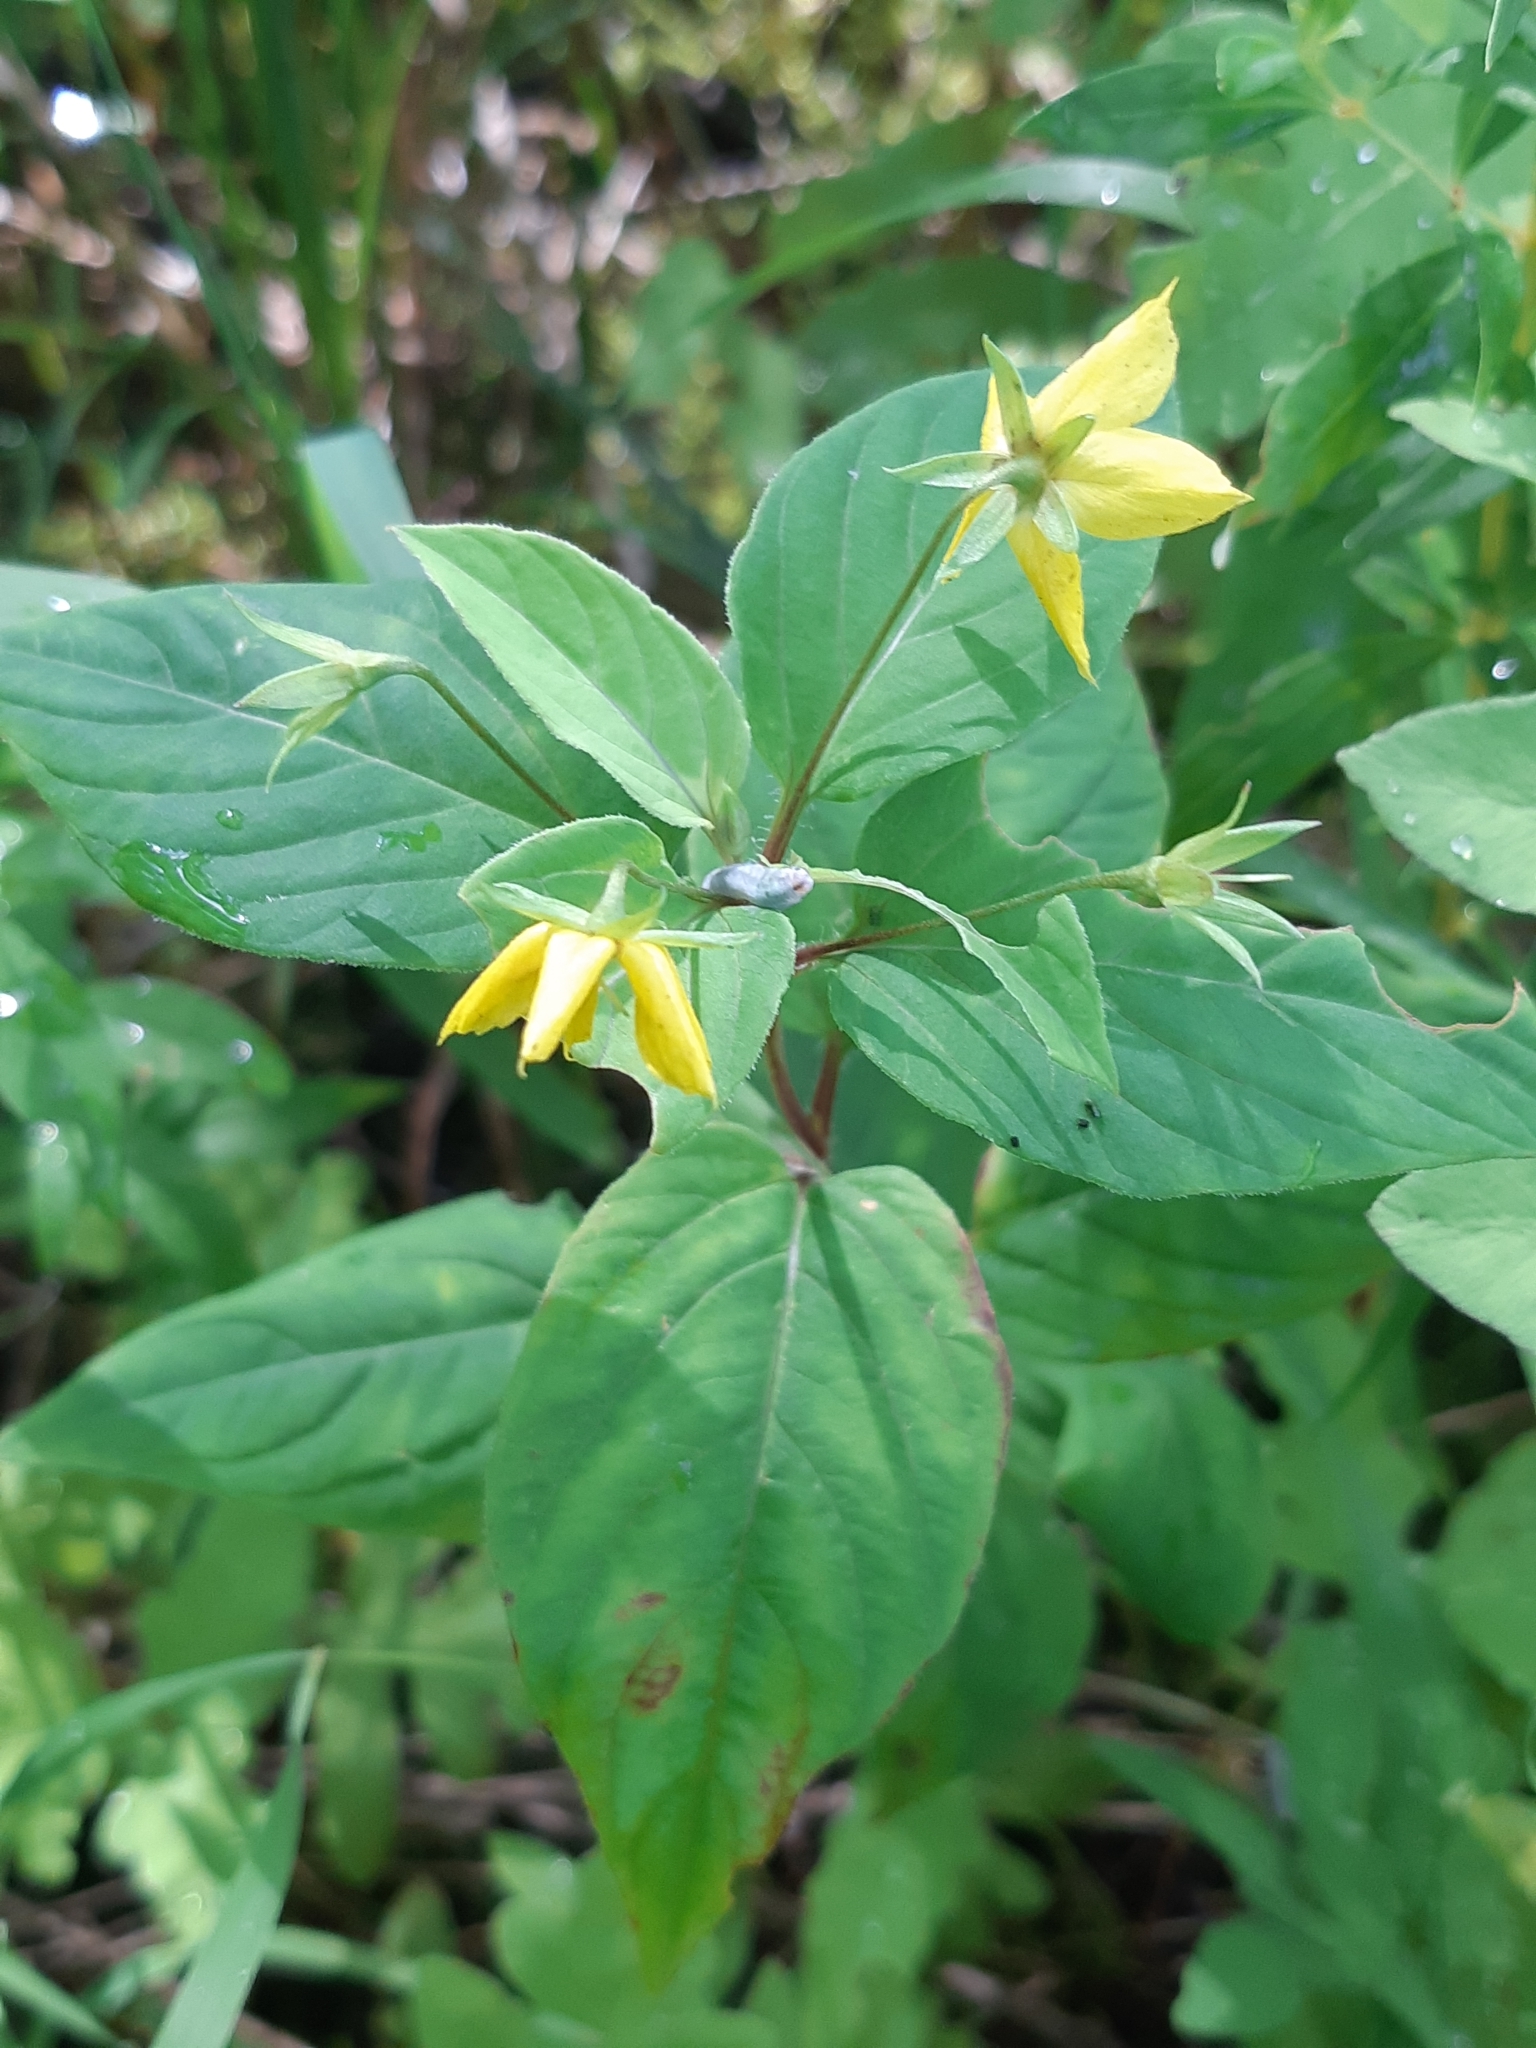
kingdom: Plantae
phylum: Tracheophyta
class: Magnoliopsida
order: Ericales
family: Primulaceae
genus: Lysimachia
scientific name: Lysimachia ciliata
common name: Fringed loosestrife
